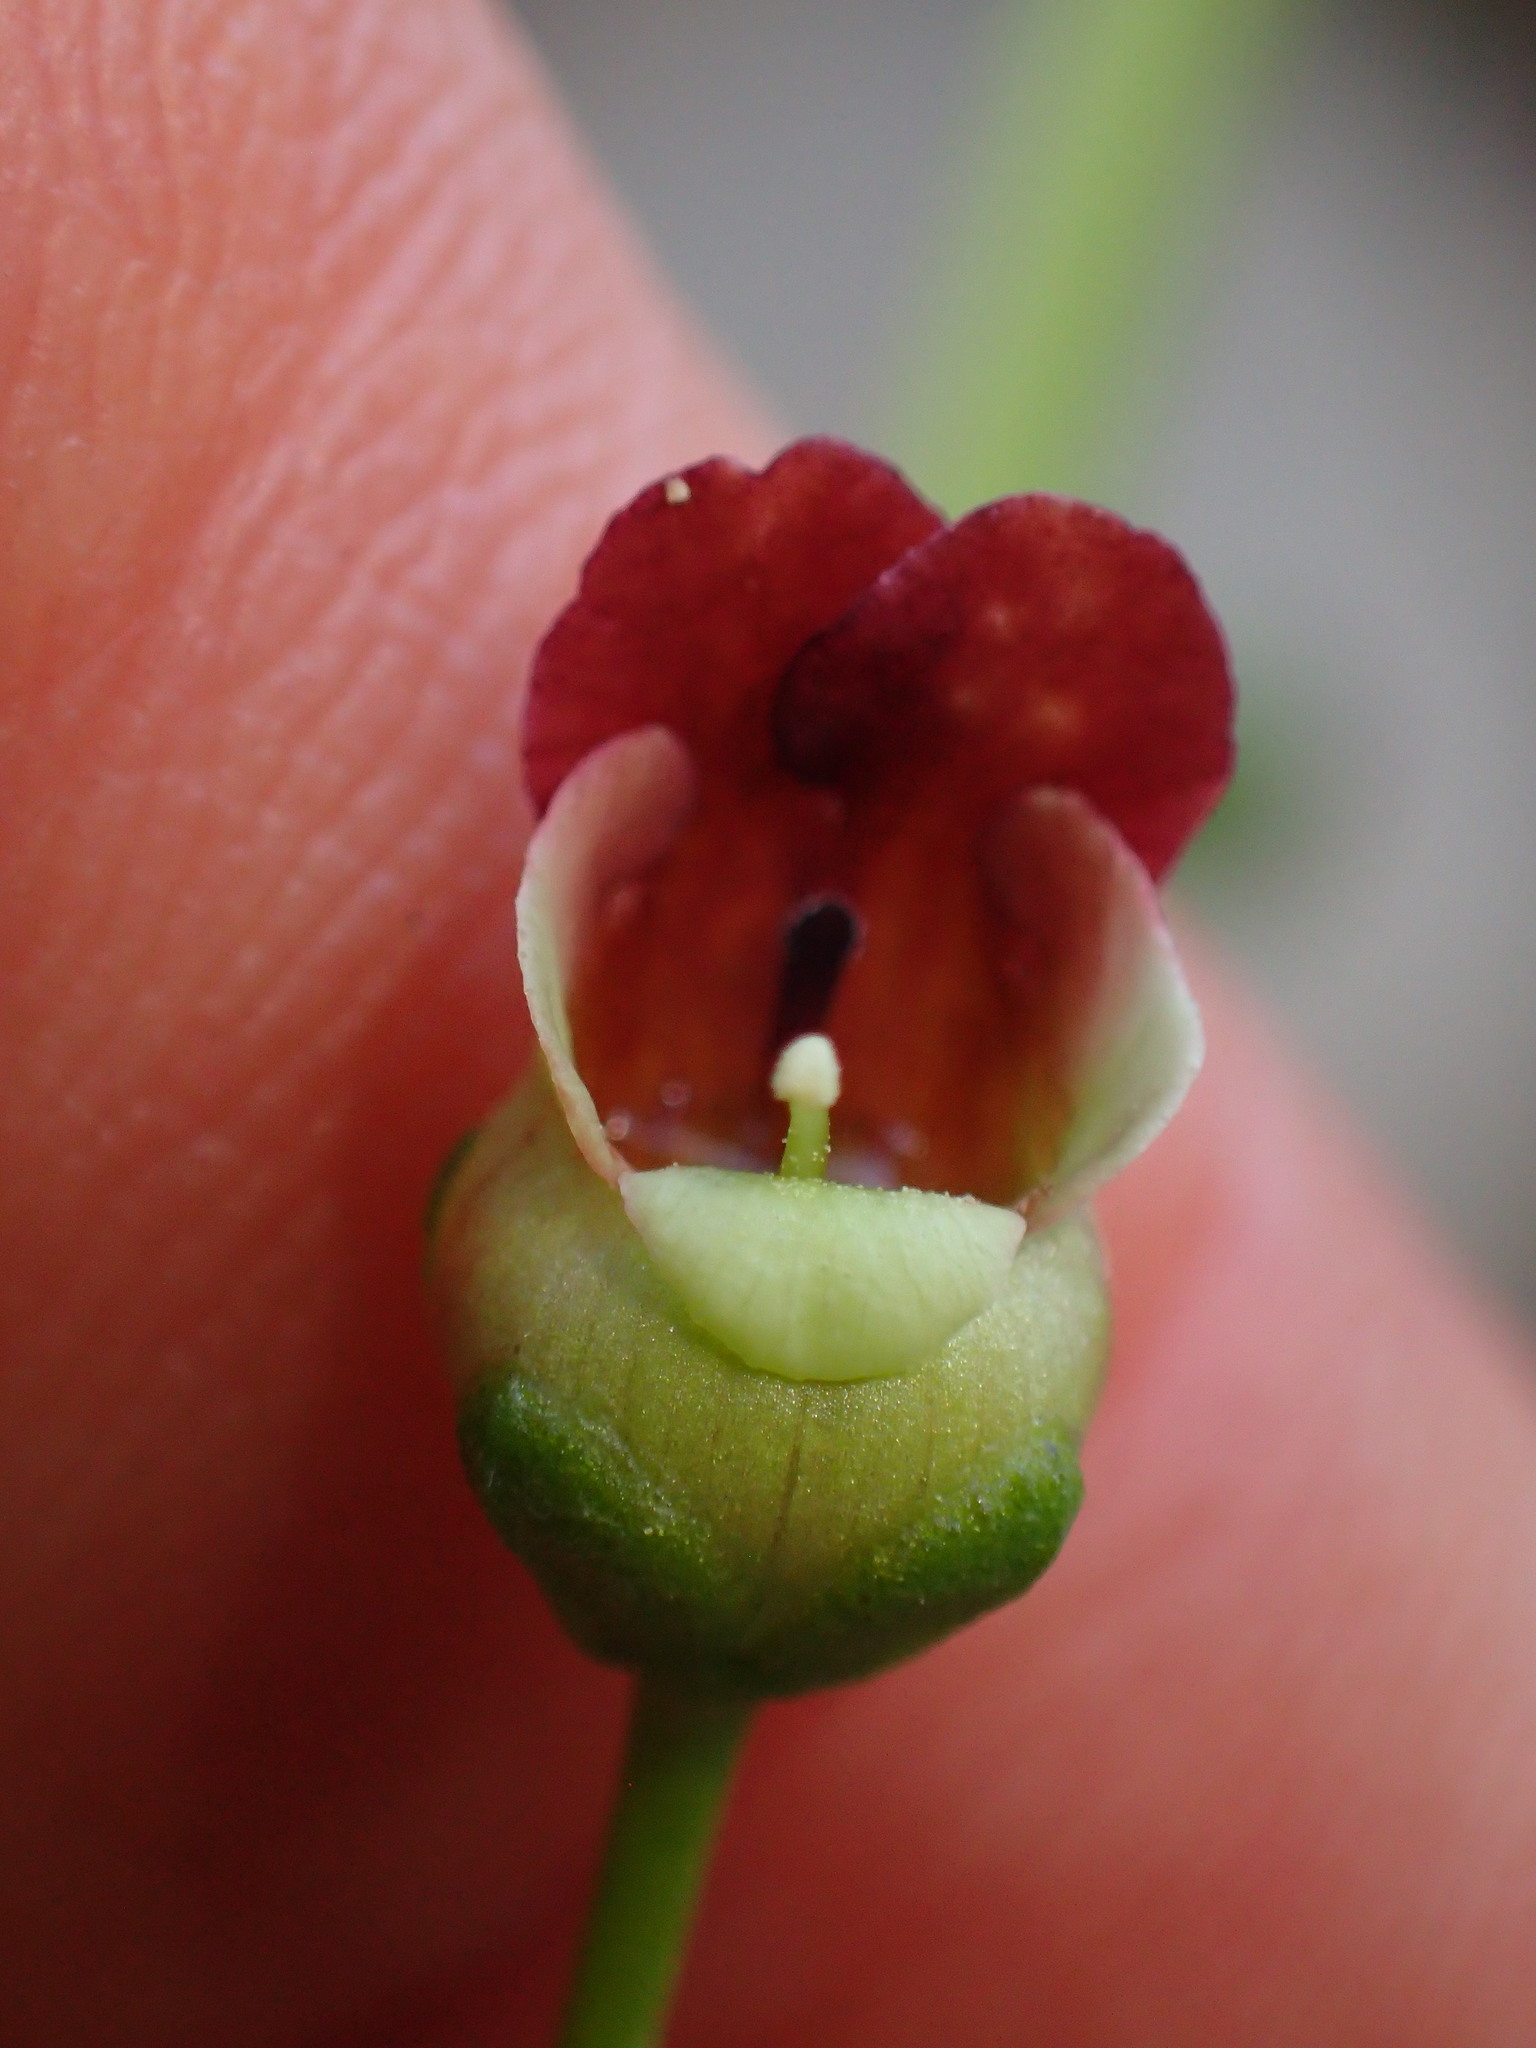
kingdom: Plantae
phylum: Tracheophyta
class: Magnoliopsida
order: Lamiales
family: Scrophulariaceae
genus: Scrophularia
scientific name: Scrophularia californica
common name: California figwort
